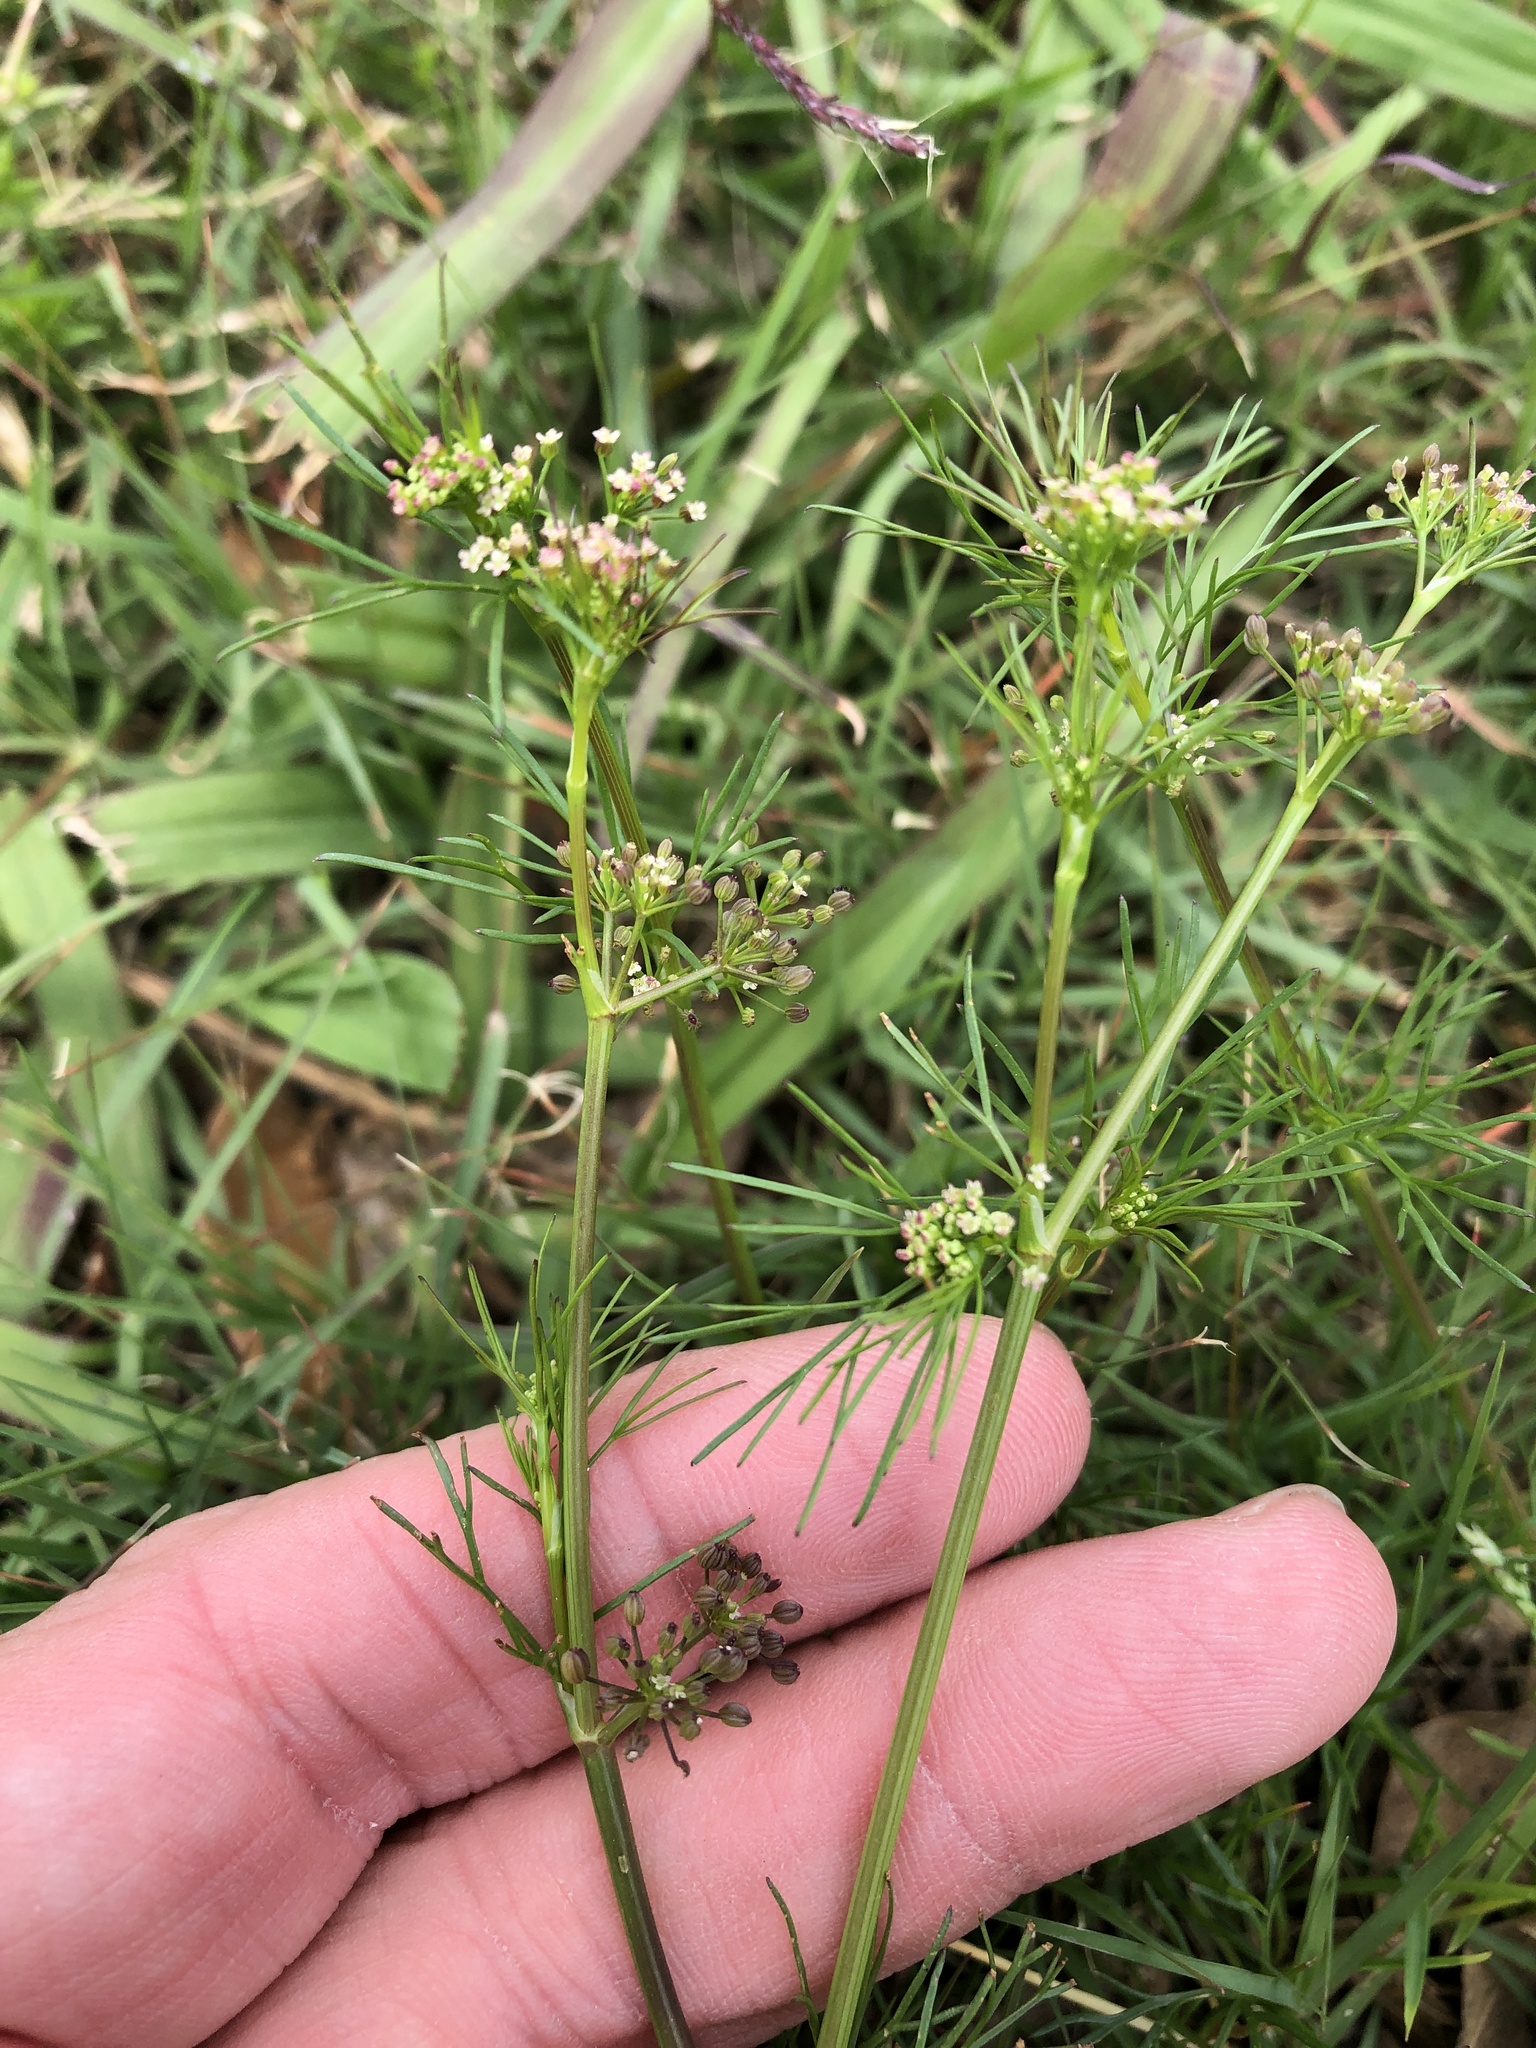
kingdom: Plantae
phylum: Tracheophyta
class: Magnoliopsida
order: Apiales
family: Apiaceae
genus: Cyclospermum
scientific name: Cyclospermum leptophyllum
